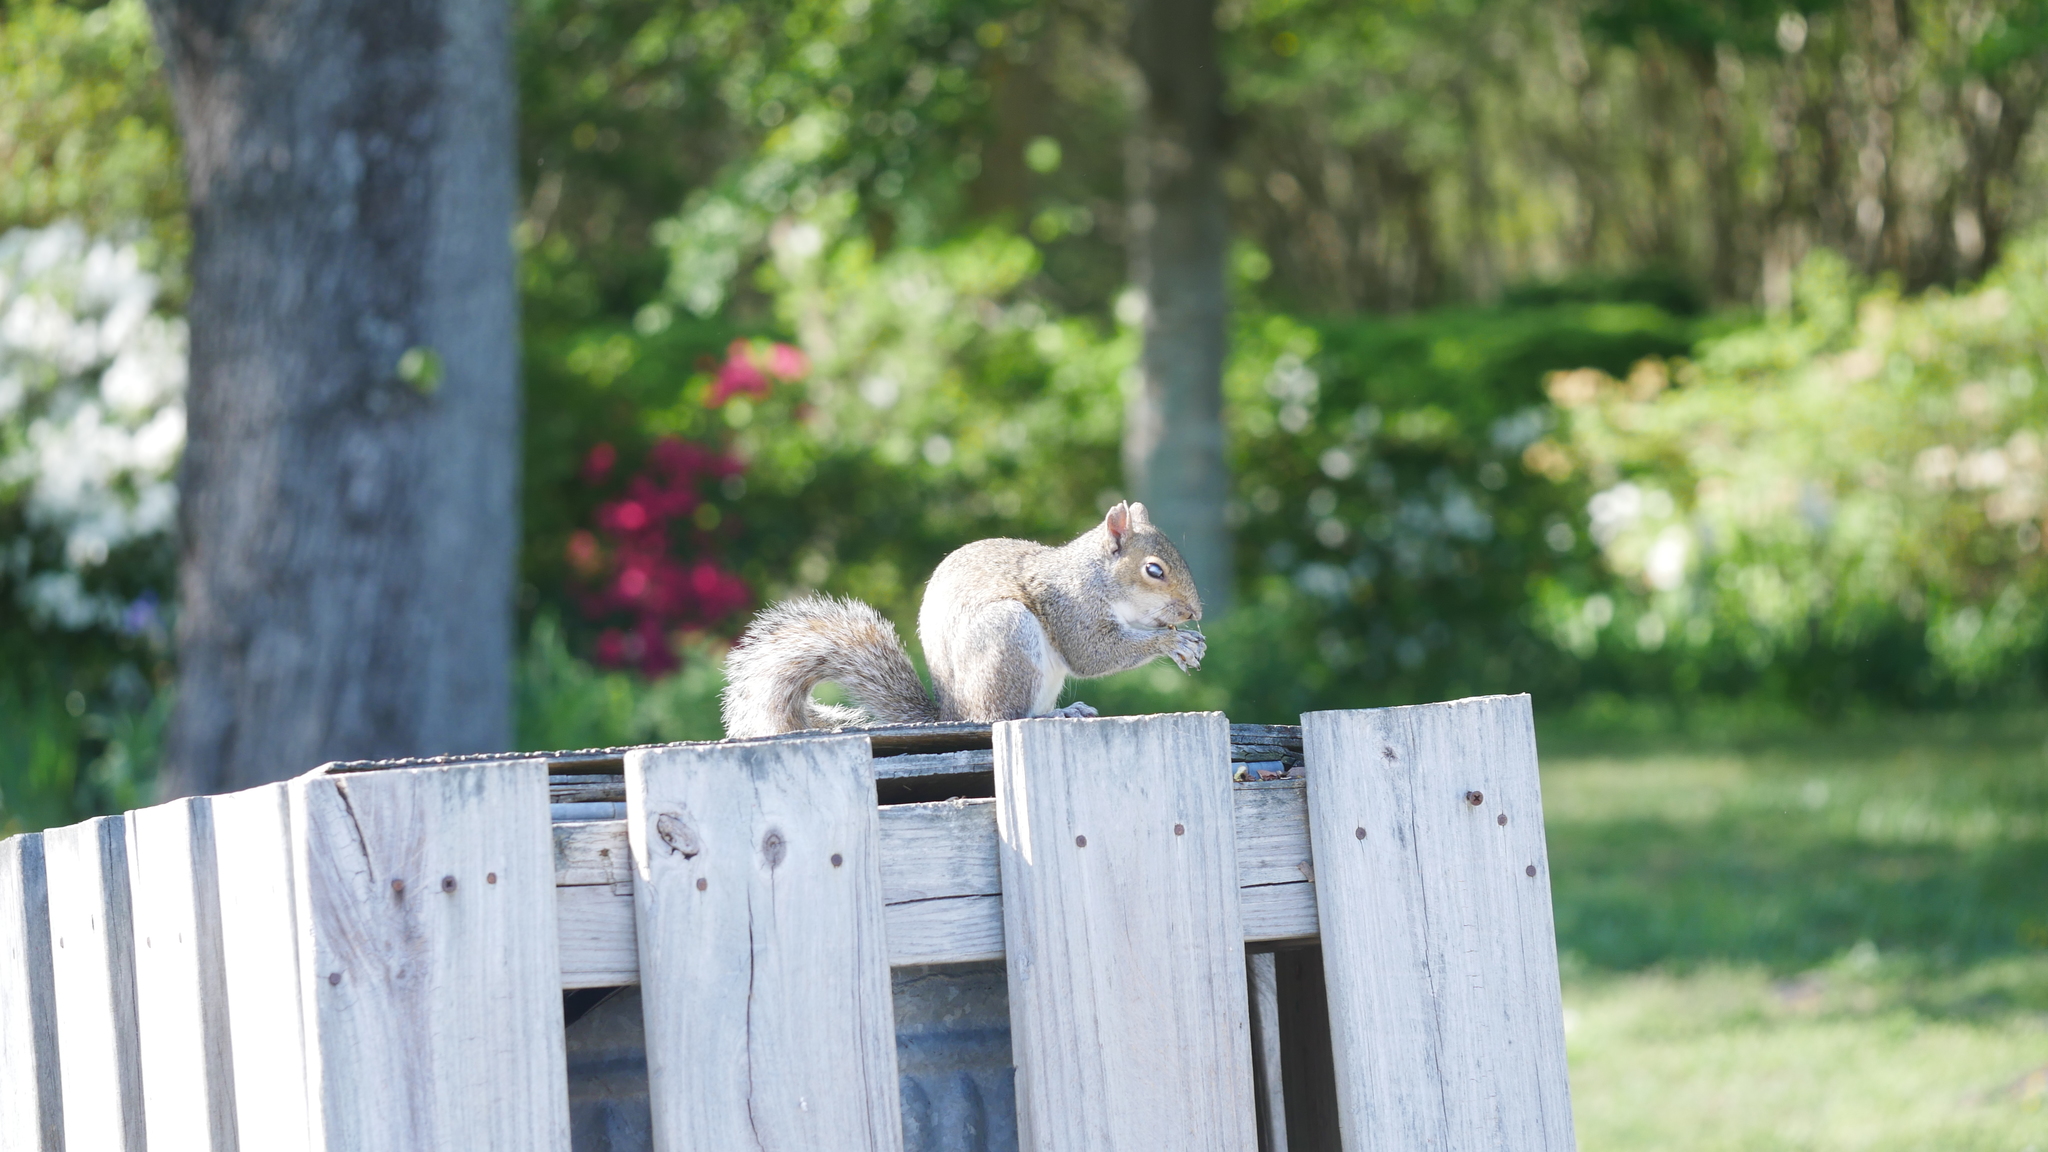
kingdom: Animalia
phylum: Chordata
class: Mammalia
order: Rodentia
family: Sciuridae
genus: Sciurus
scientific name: Sciurus carolinensis
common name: Eastern gray squirrel
